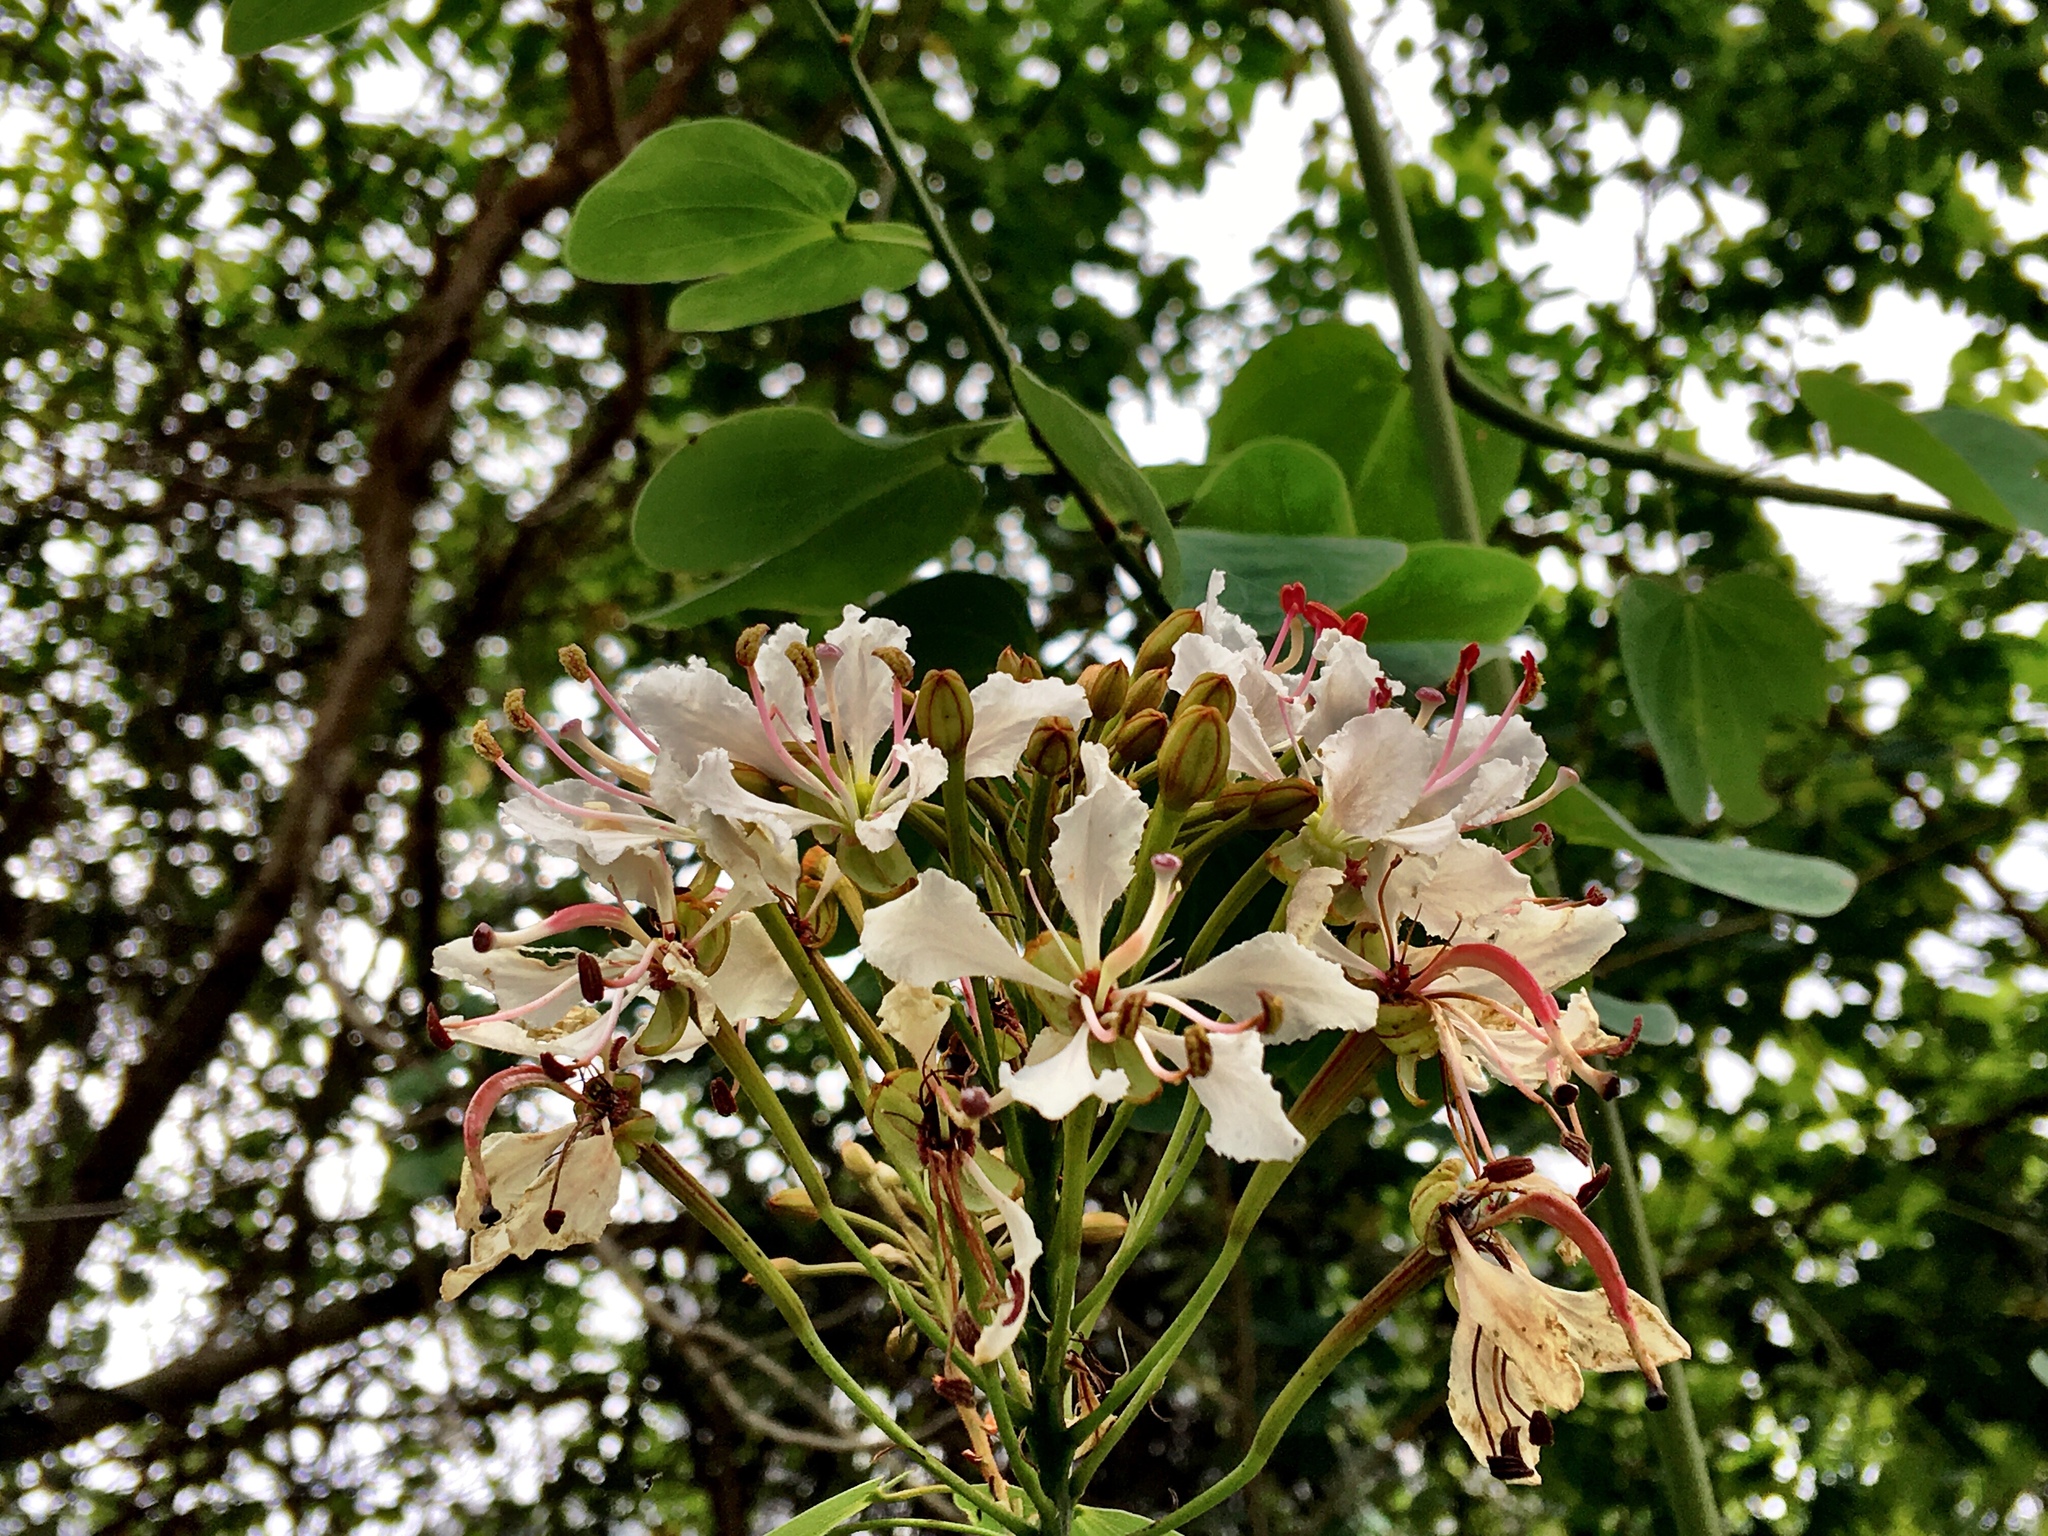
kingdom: Plantae
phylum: Tracheophyta
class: Magnoliopsida
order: Fabales
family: Fabaceae
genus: Cheniella
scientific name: Cheniella glauca
